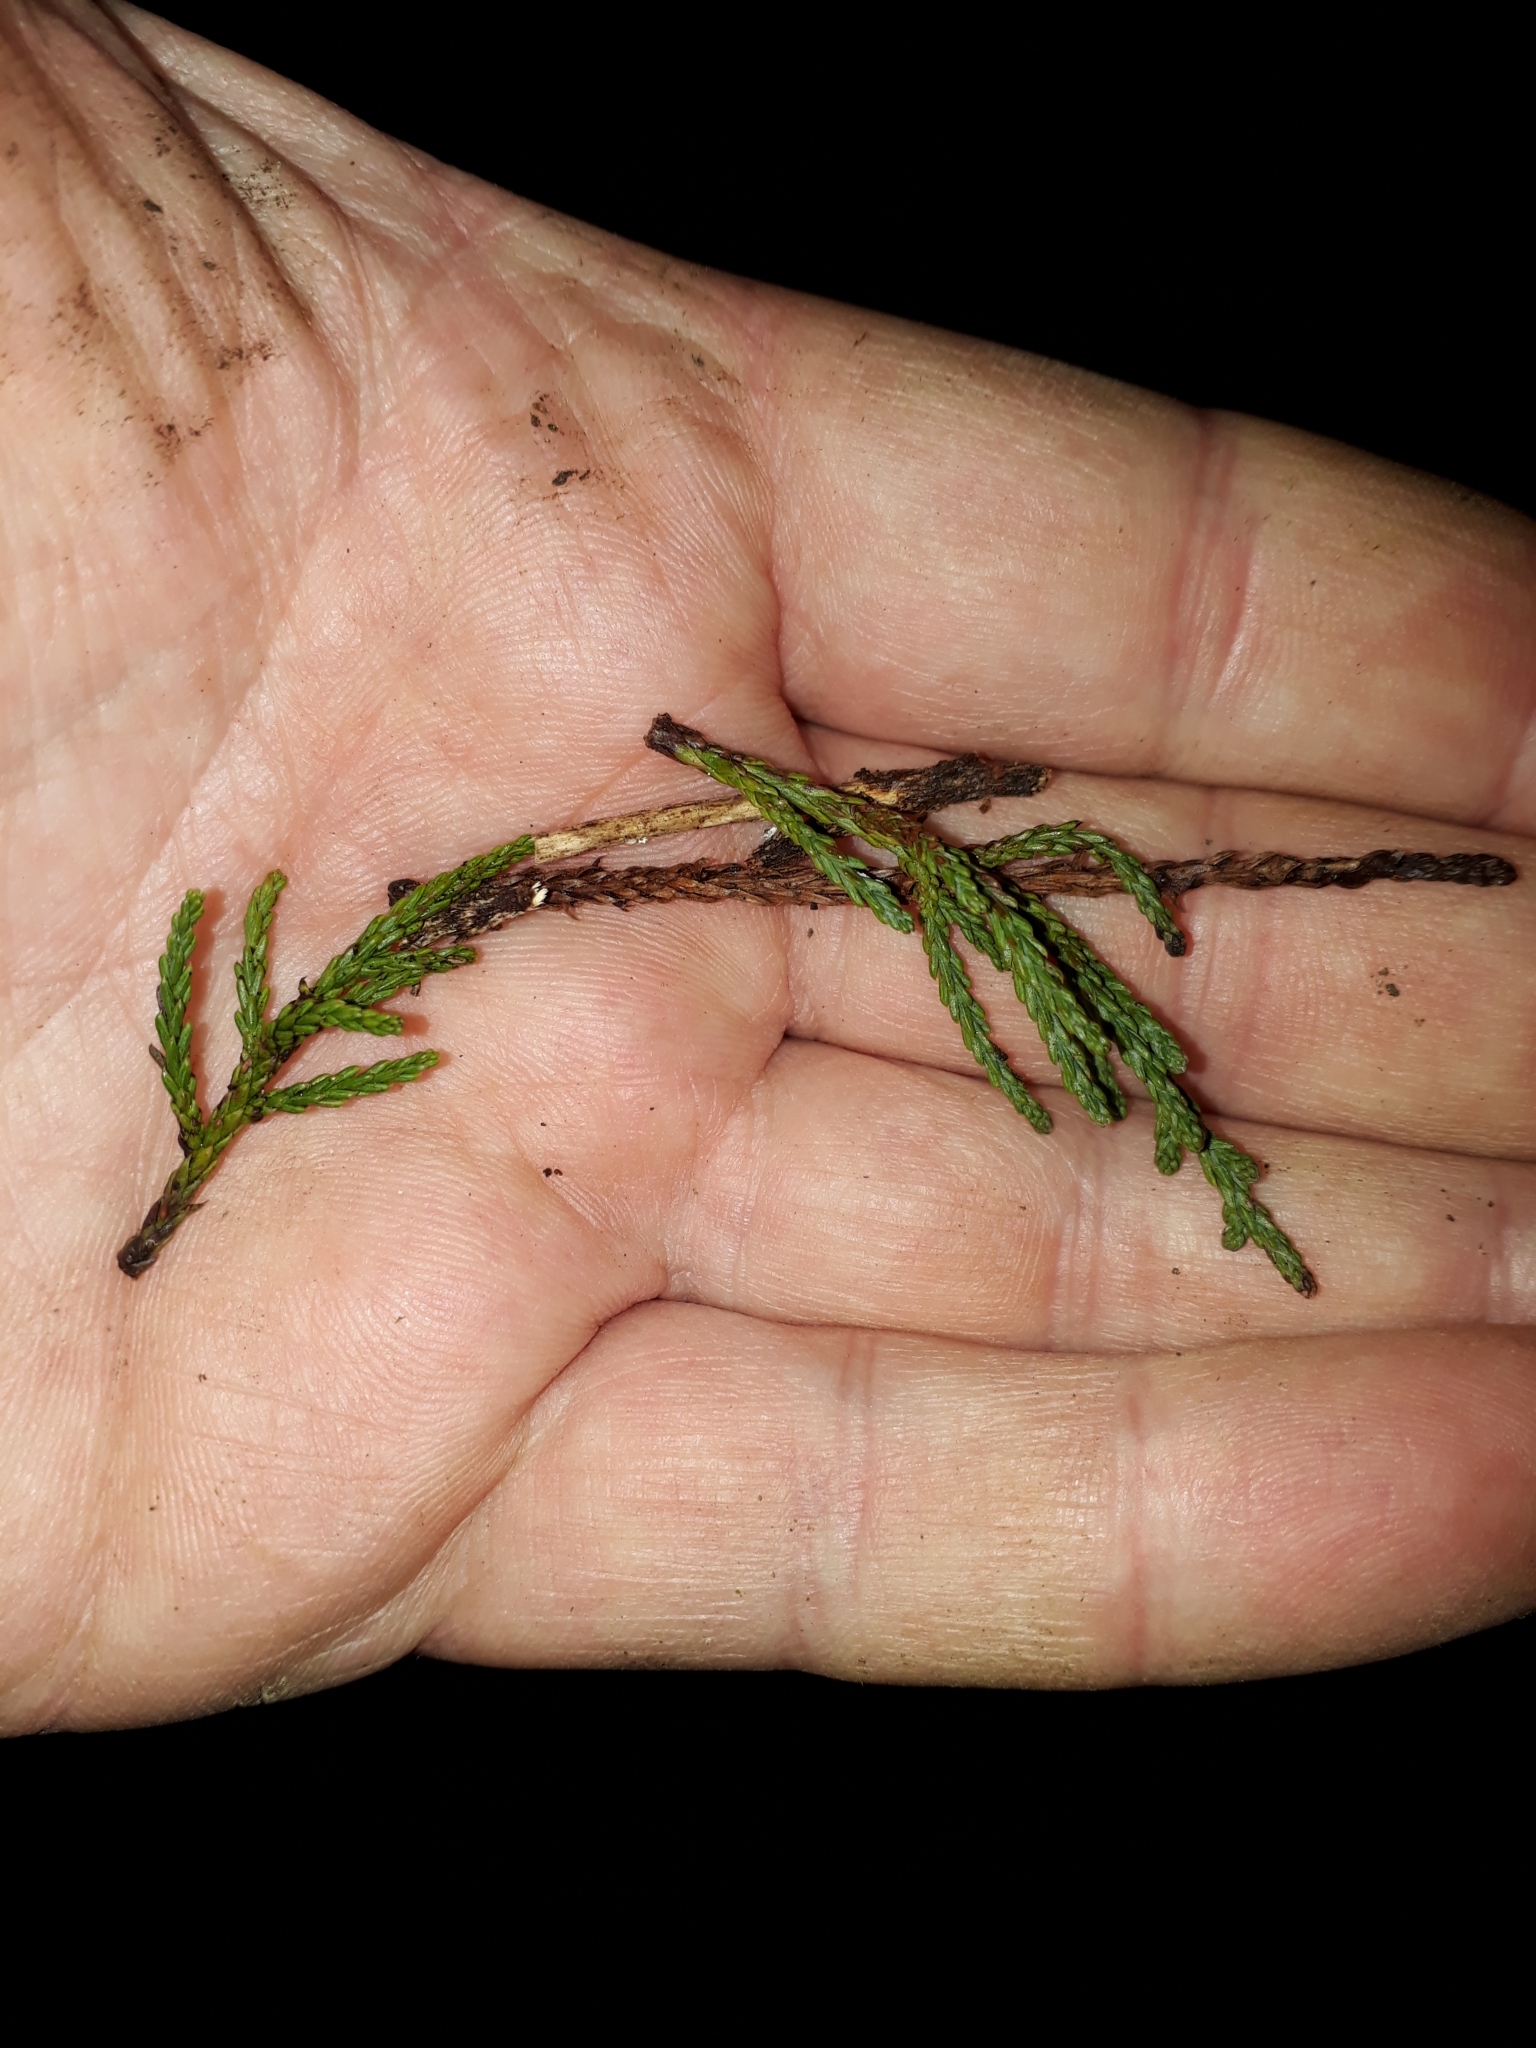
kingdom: Plantae
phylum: Tracheophyta
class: Pinopsida
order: Pinales
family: Podocarpaceae
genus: Dacrycarpus
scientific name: Dacrycarpus dacrydioides
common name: White pine
